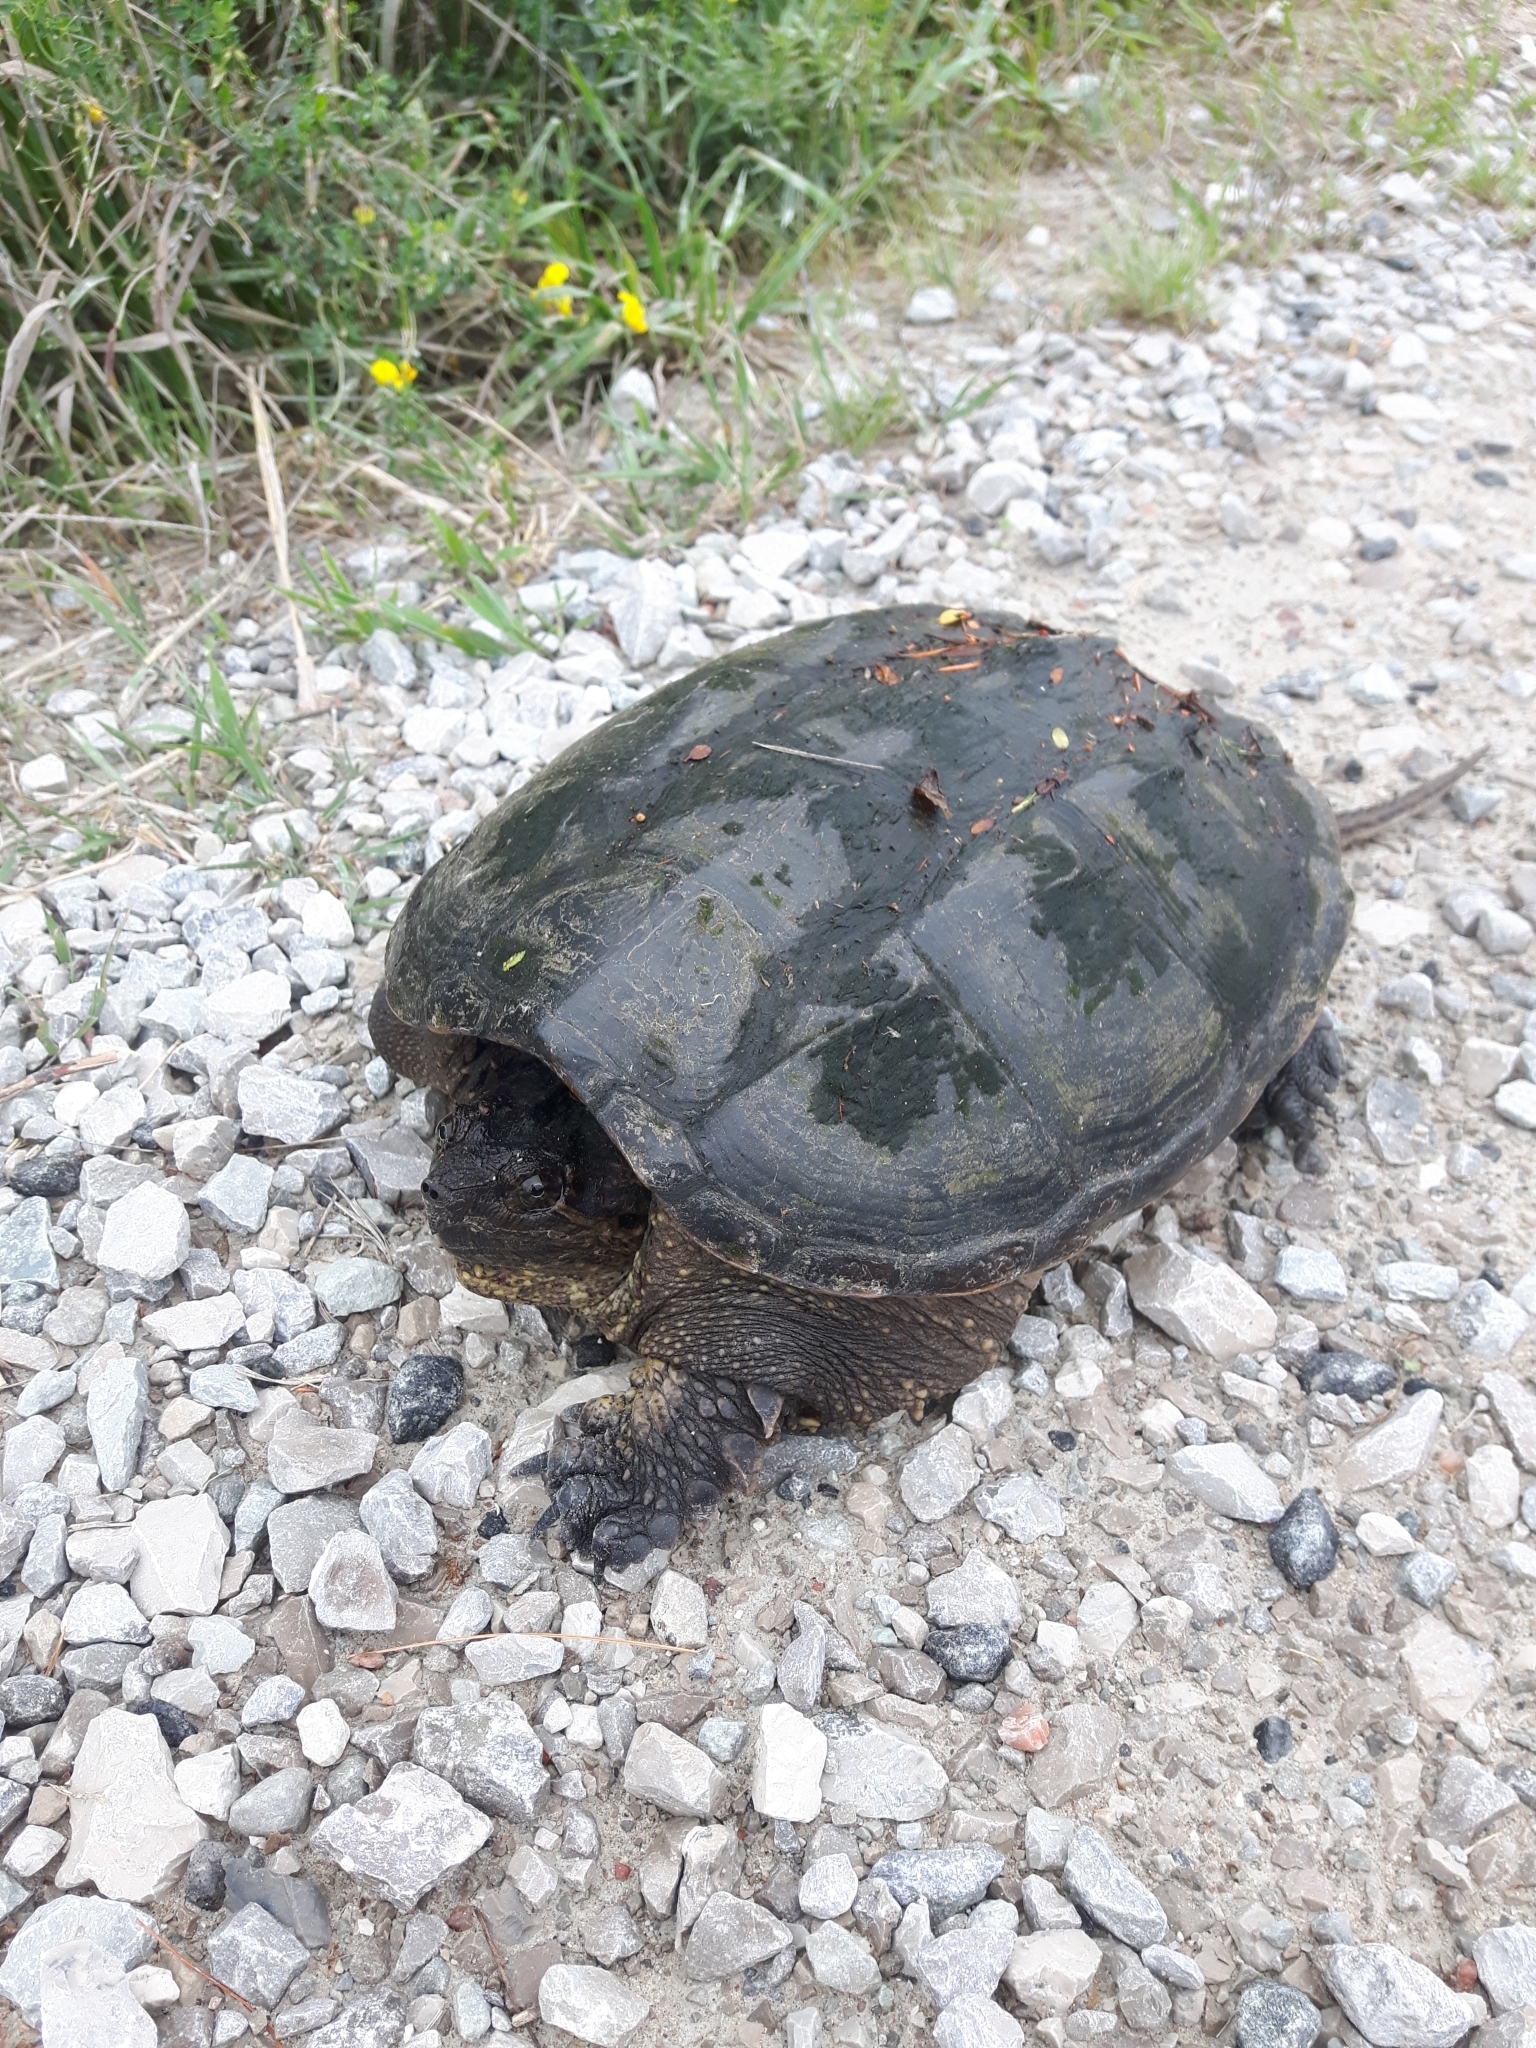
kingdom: Animalia
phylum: Chordata
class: Testudines
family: Chelydridae
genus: Chelydra
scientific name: Chelydra serpentina
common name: Common snapping turtle
